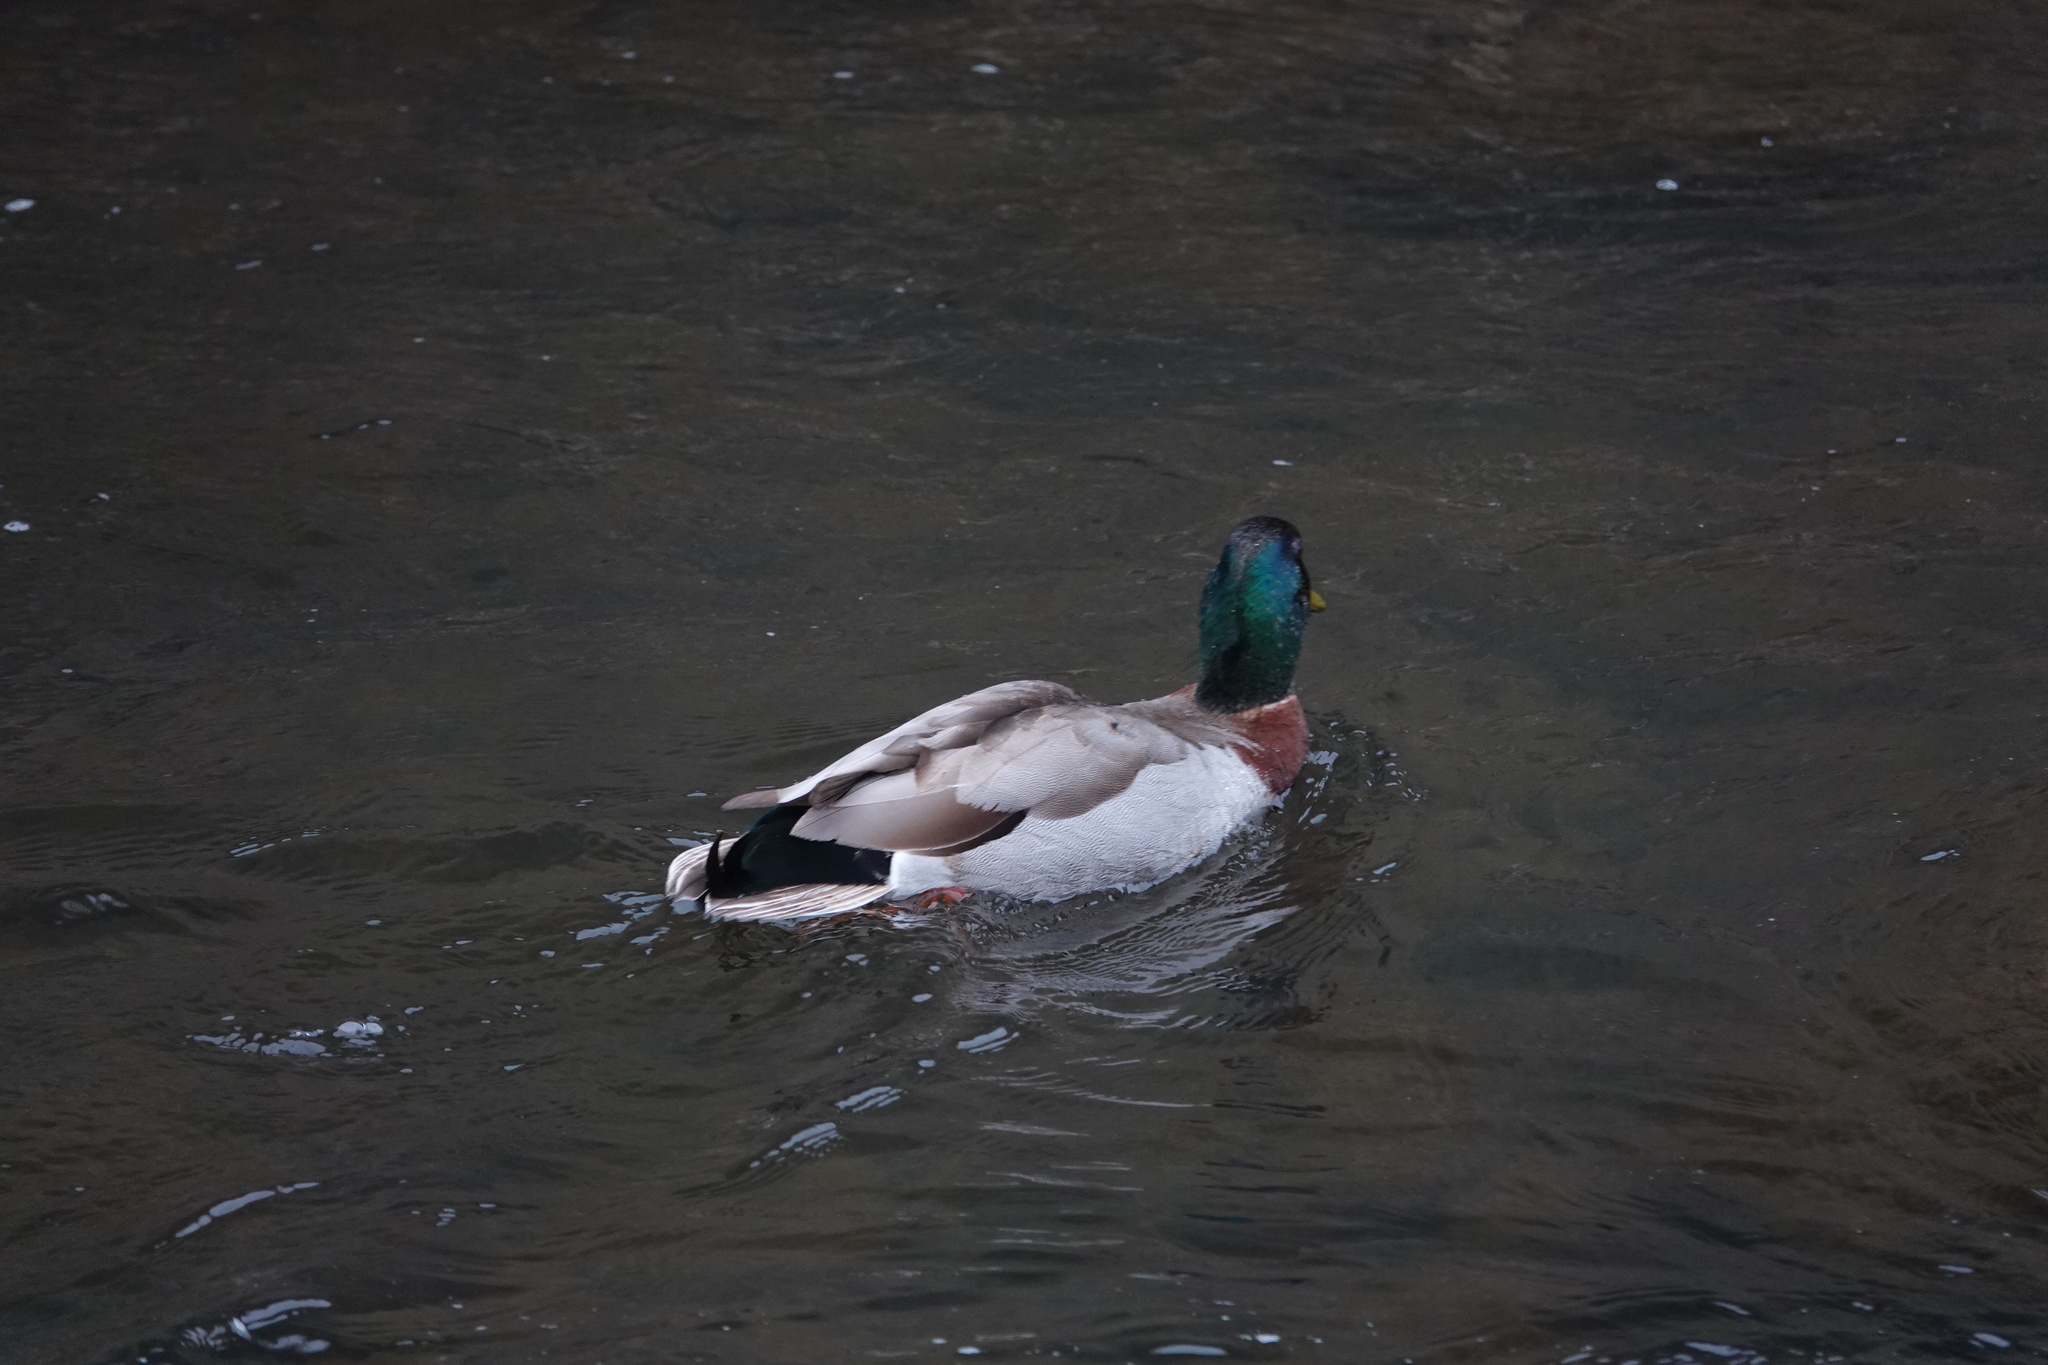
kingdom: Animalia
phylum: Chordata
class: Aves
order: Anseriformes
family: Anatidae
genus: Anas
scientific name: Anas platyrhynchos
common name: Mallard
